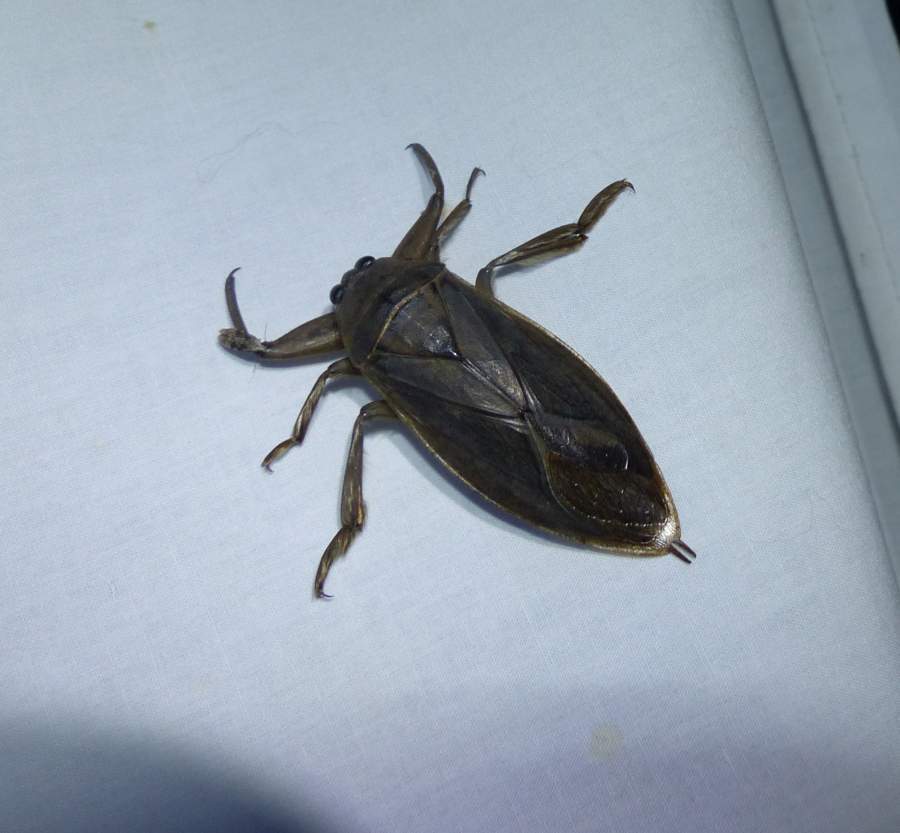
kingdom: Animalia
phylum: Arthropoda
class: Insecta
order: Hemiptera
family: Belostomatidae
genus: Lethocerus
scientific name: Lethocerus americanus
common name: Giant water bug
